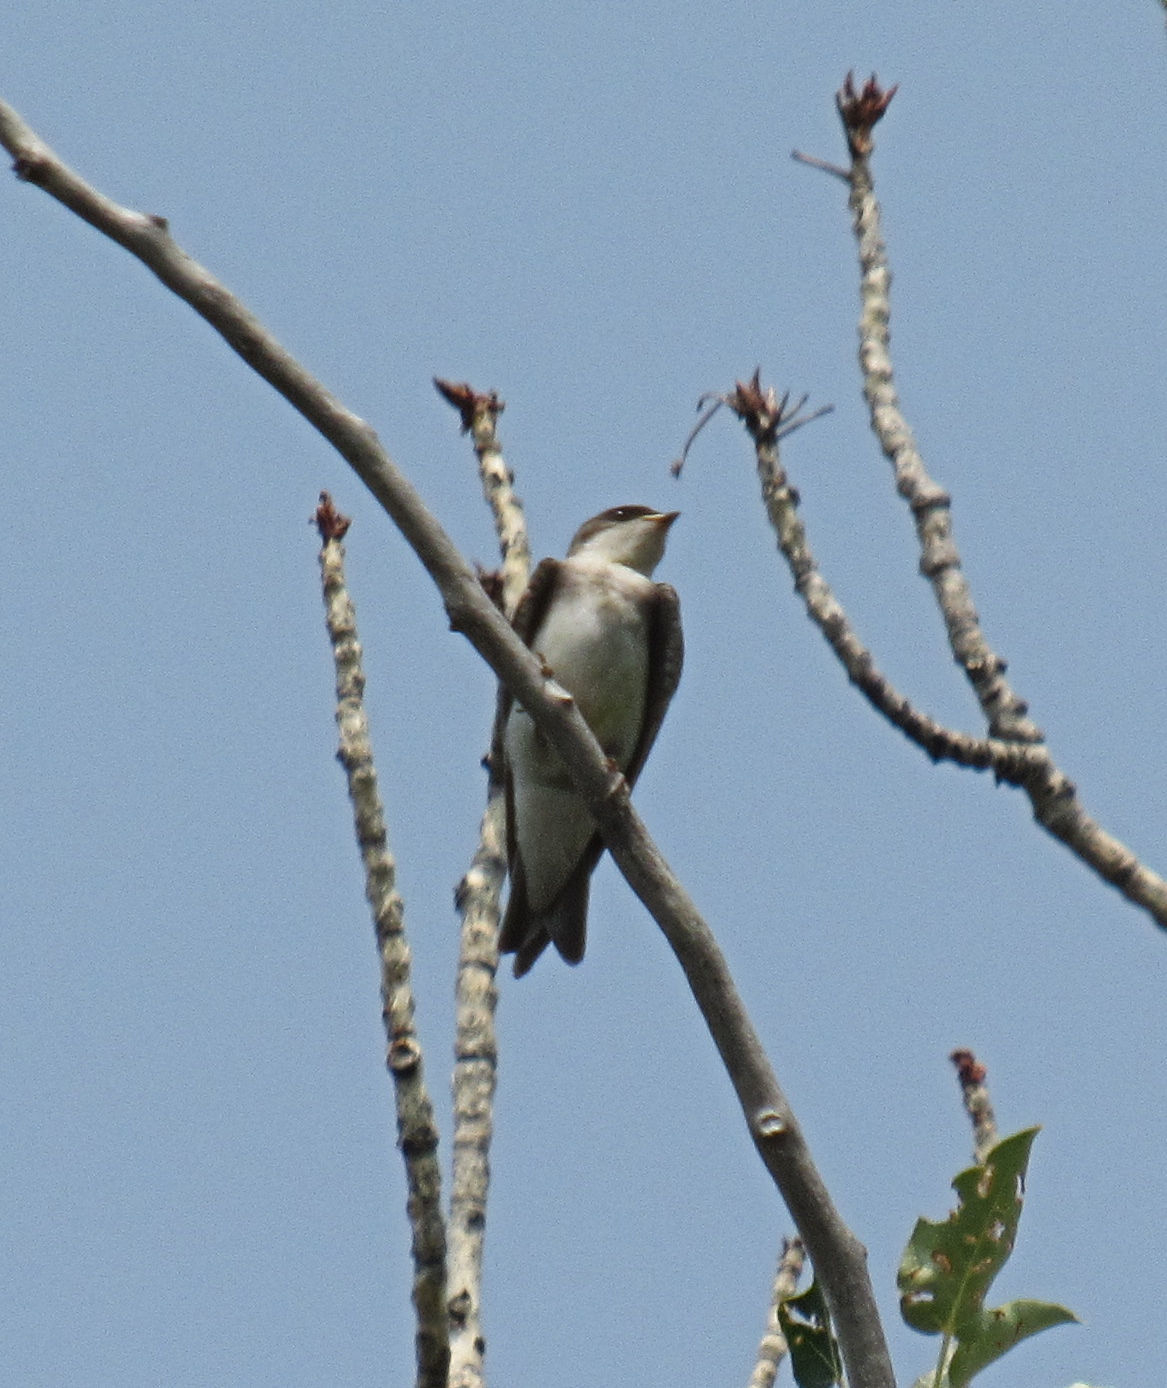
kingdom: Animalia
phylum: Chordata
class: Aves
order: Passeriformes
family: Hirundinidae
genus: Tachycineta
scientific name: Tachycineta bicolor
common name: Tree swallow
